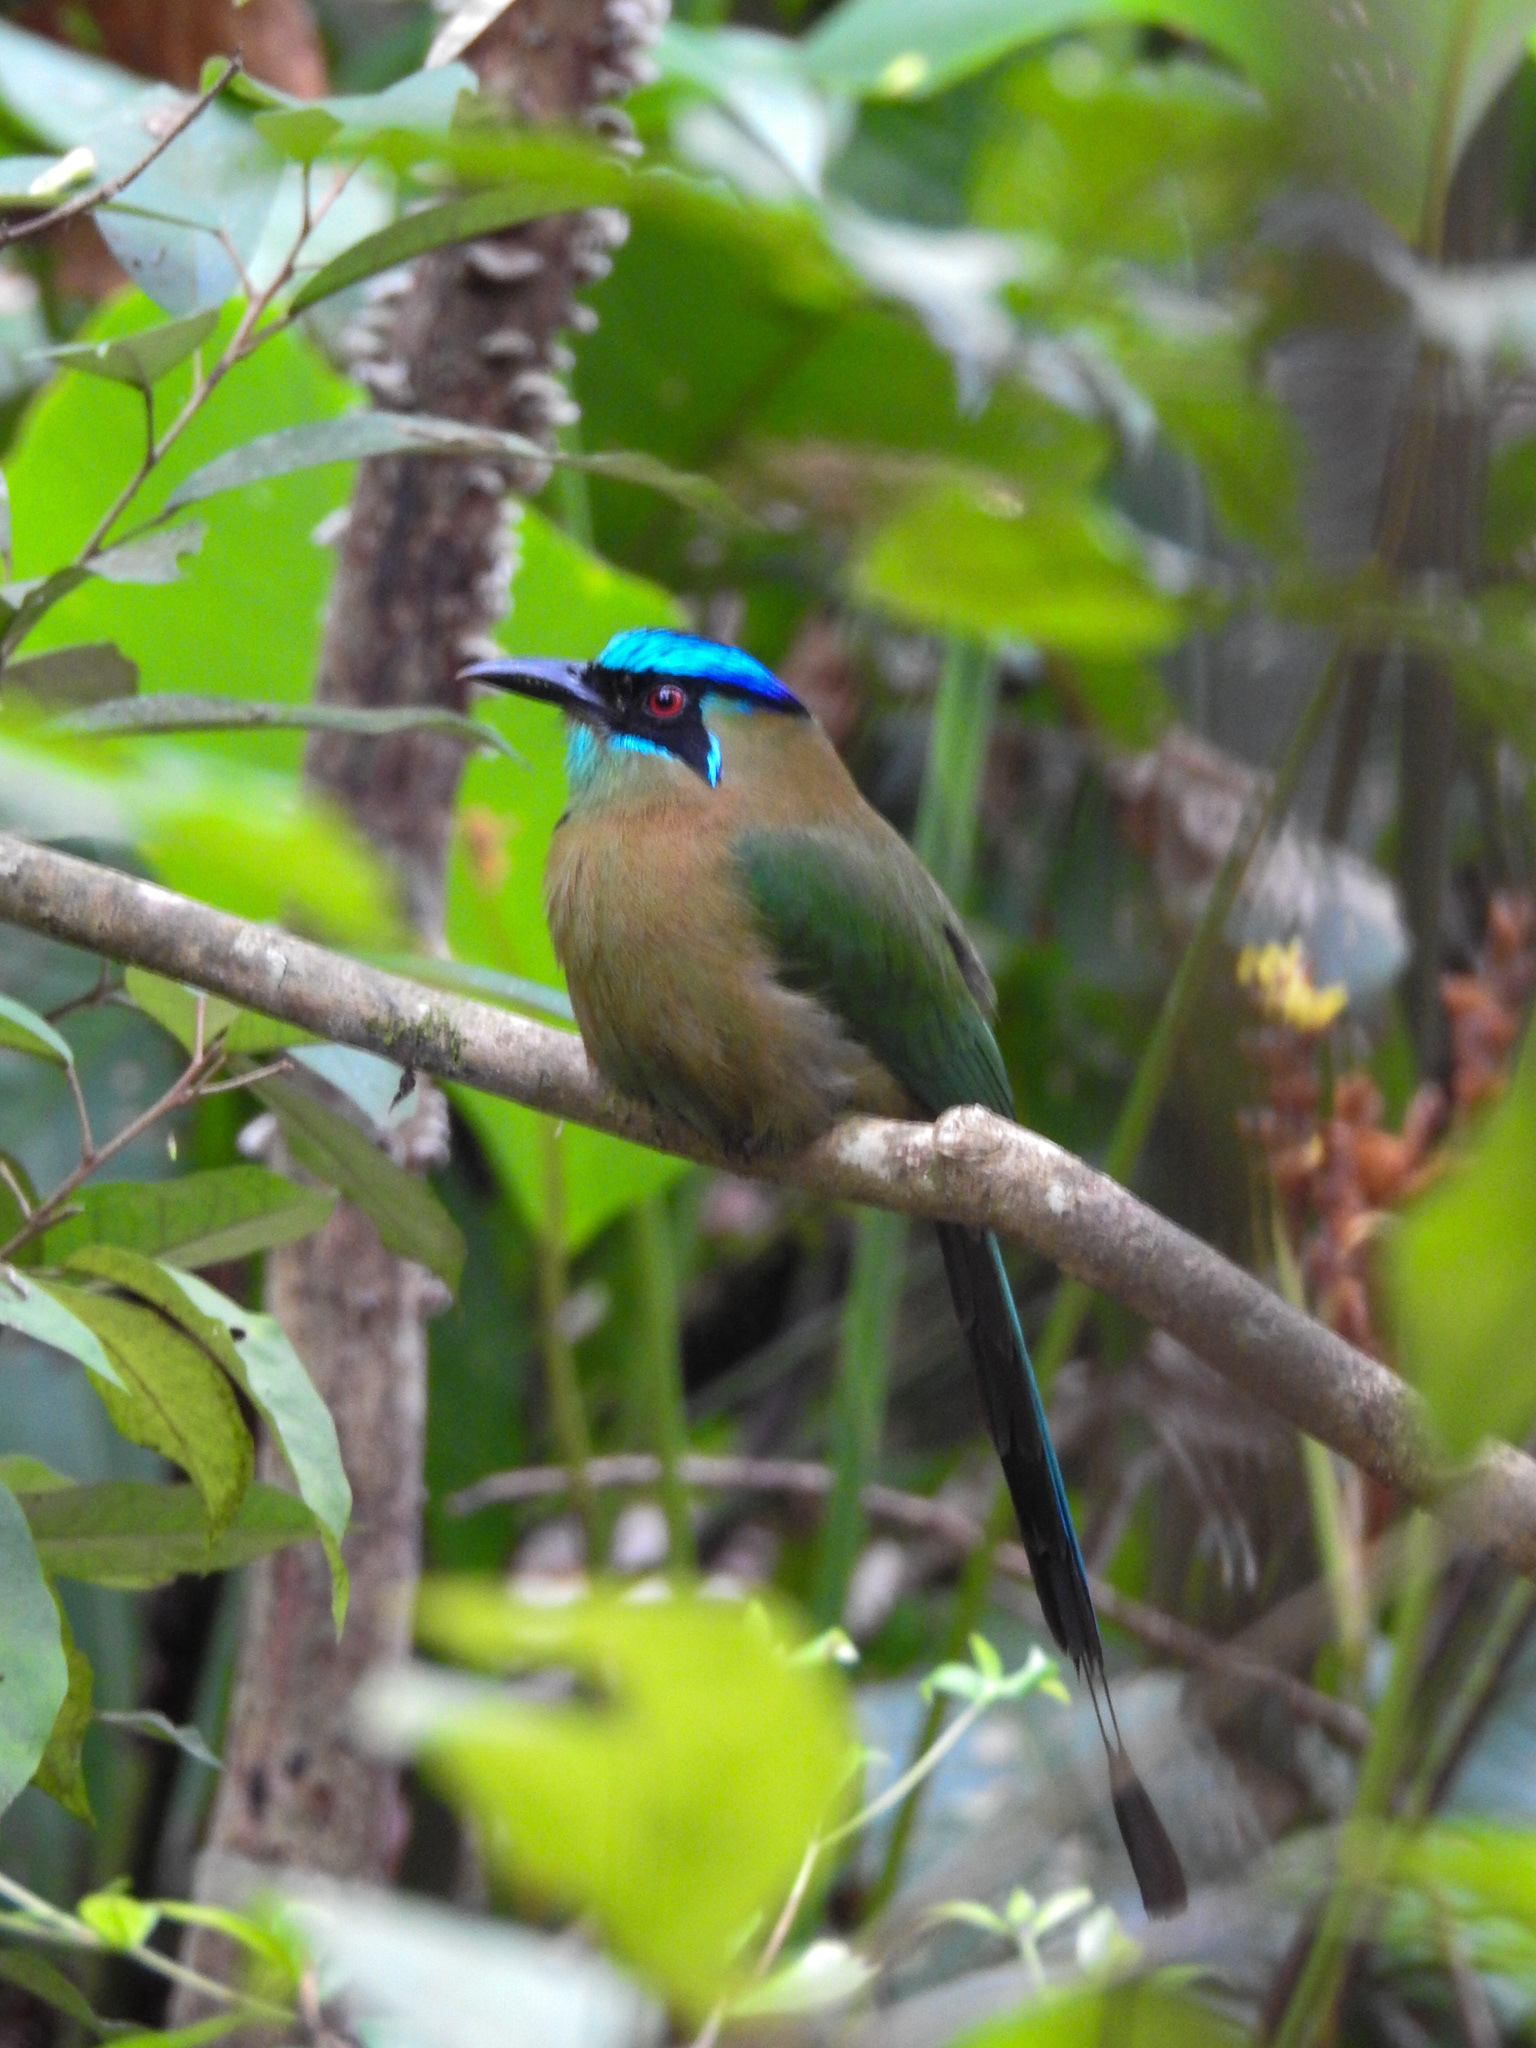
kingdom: Animalia
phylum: Chordata
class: Aves
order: Coraciiformes
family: Momotidae
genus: Momotus
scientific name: Momotus lessonii
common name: Lesson's motmot
